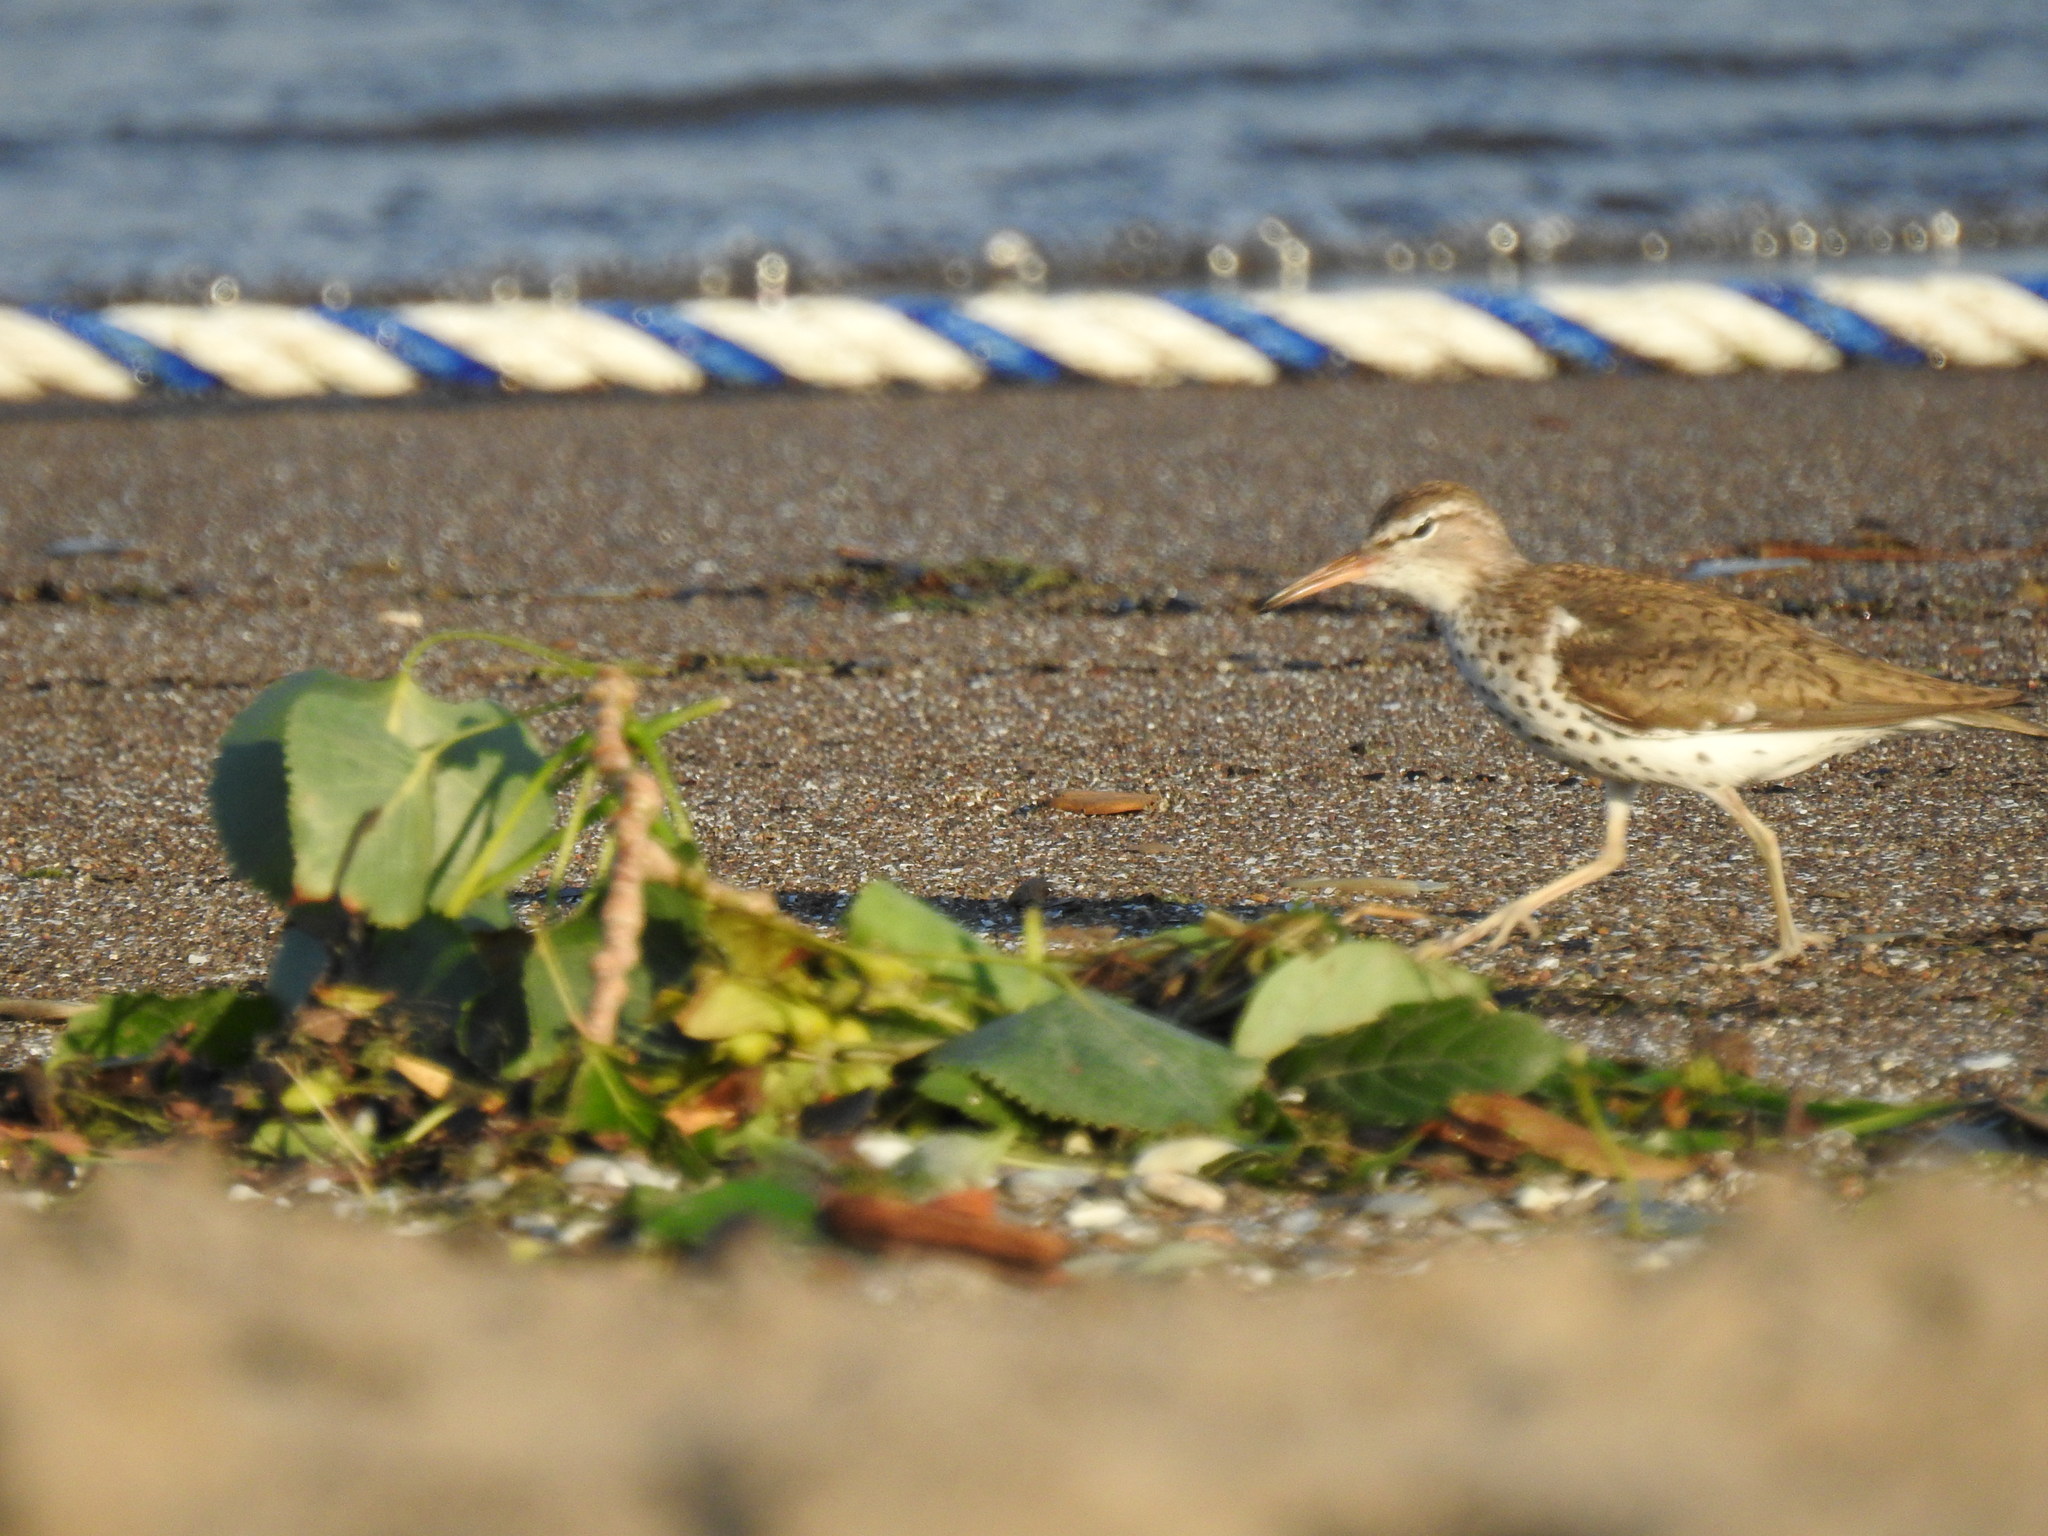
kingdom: Animalia
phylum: Chordata
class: Aves
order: Charadriiformes
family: Scolopacidae
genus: Actitis
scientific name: Actitis macularius
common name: Spotted sandpiper
